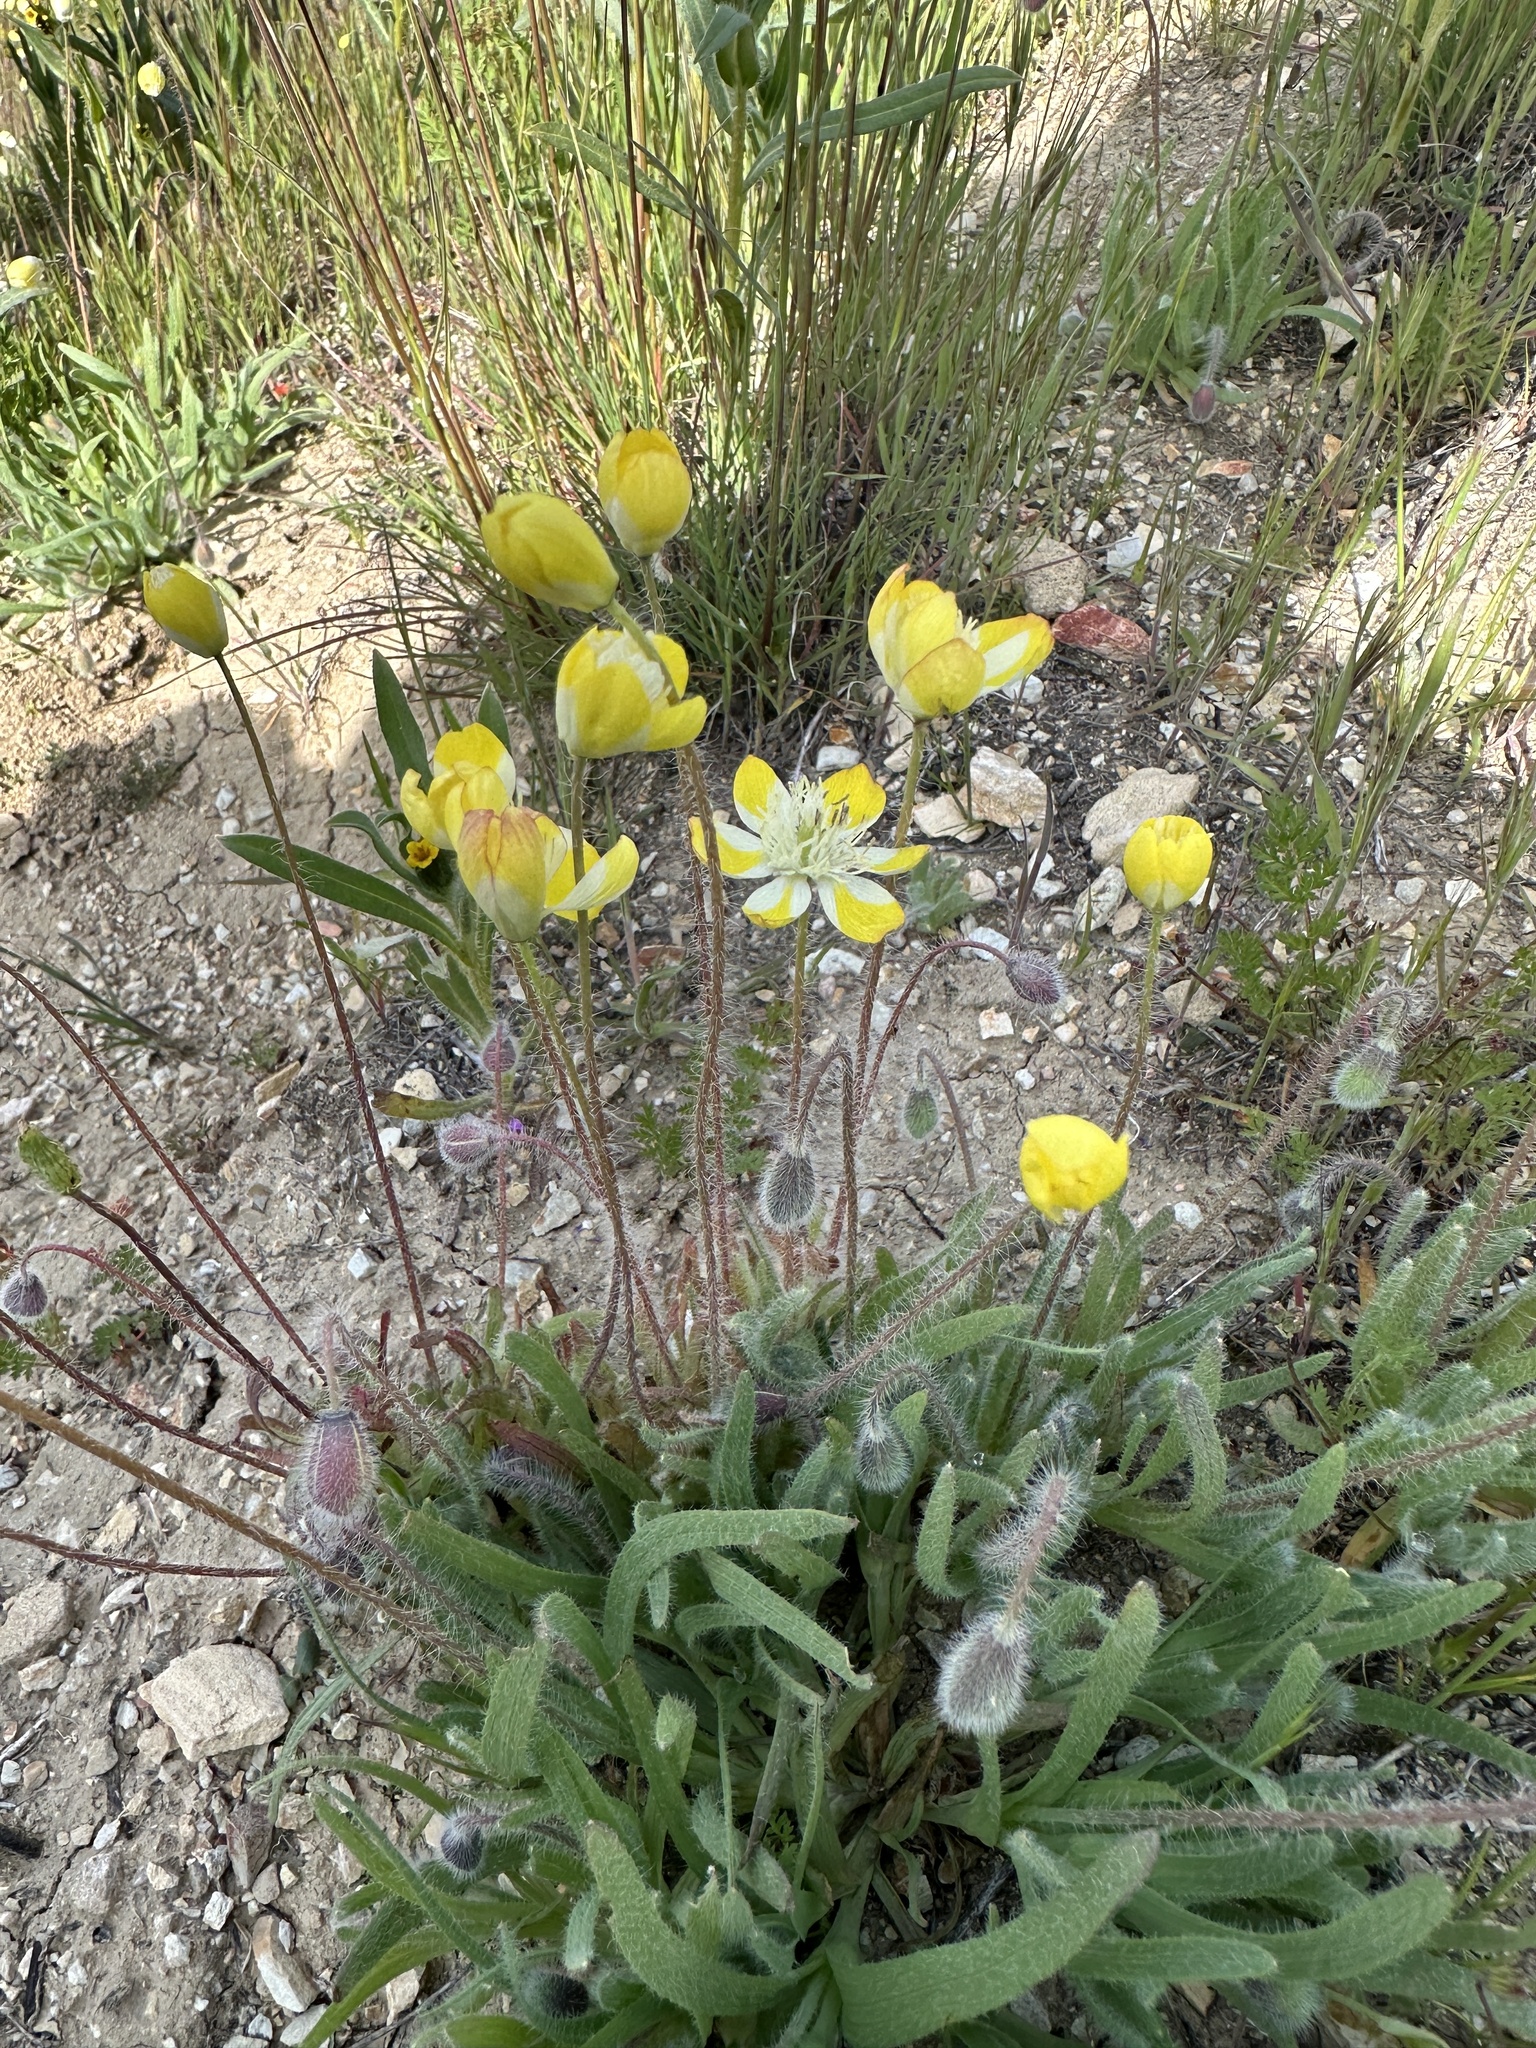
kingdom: Plantae
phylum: Tracheophyta
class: Magnoliopsida
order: Ranunculales
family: Papaveraceae
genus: Platystemon
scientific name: Platystemon californicus
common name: Cream-cups
